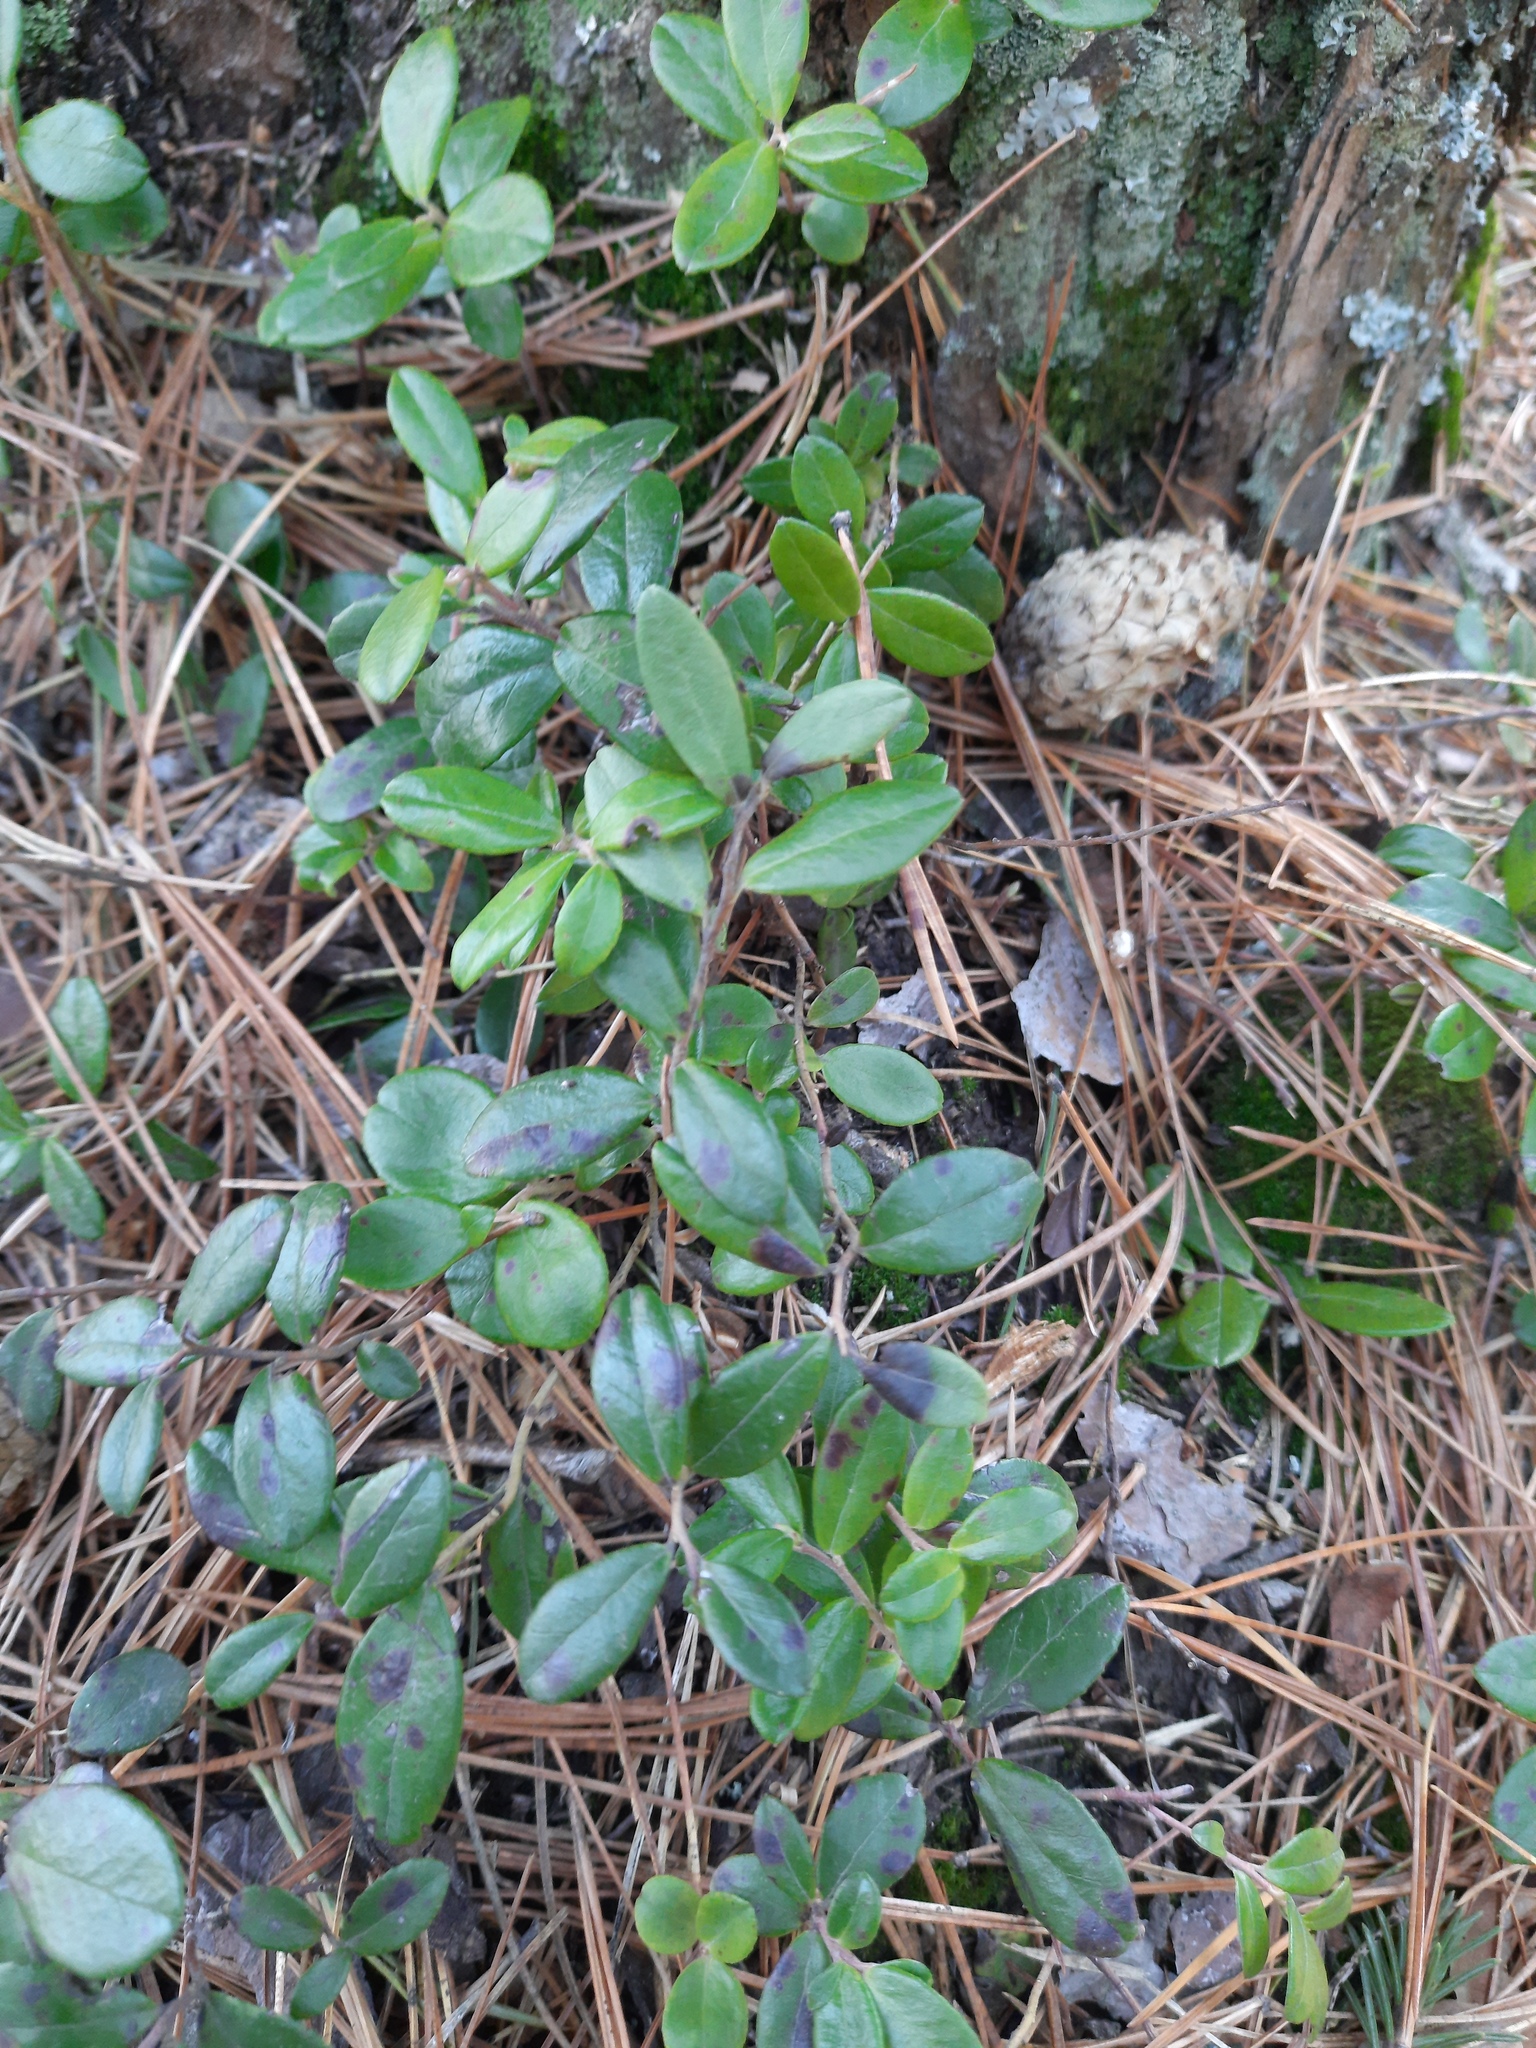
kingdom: Plantae
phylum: Tracheophyta
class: Magnoliopsida
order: Ericales
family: Ericaceae
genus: Vaccinium
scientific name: Vaccinium vitis-idaea
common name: Cowberry
